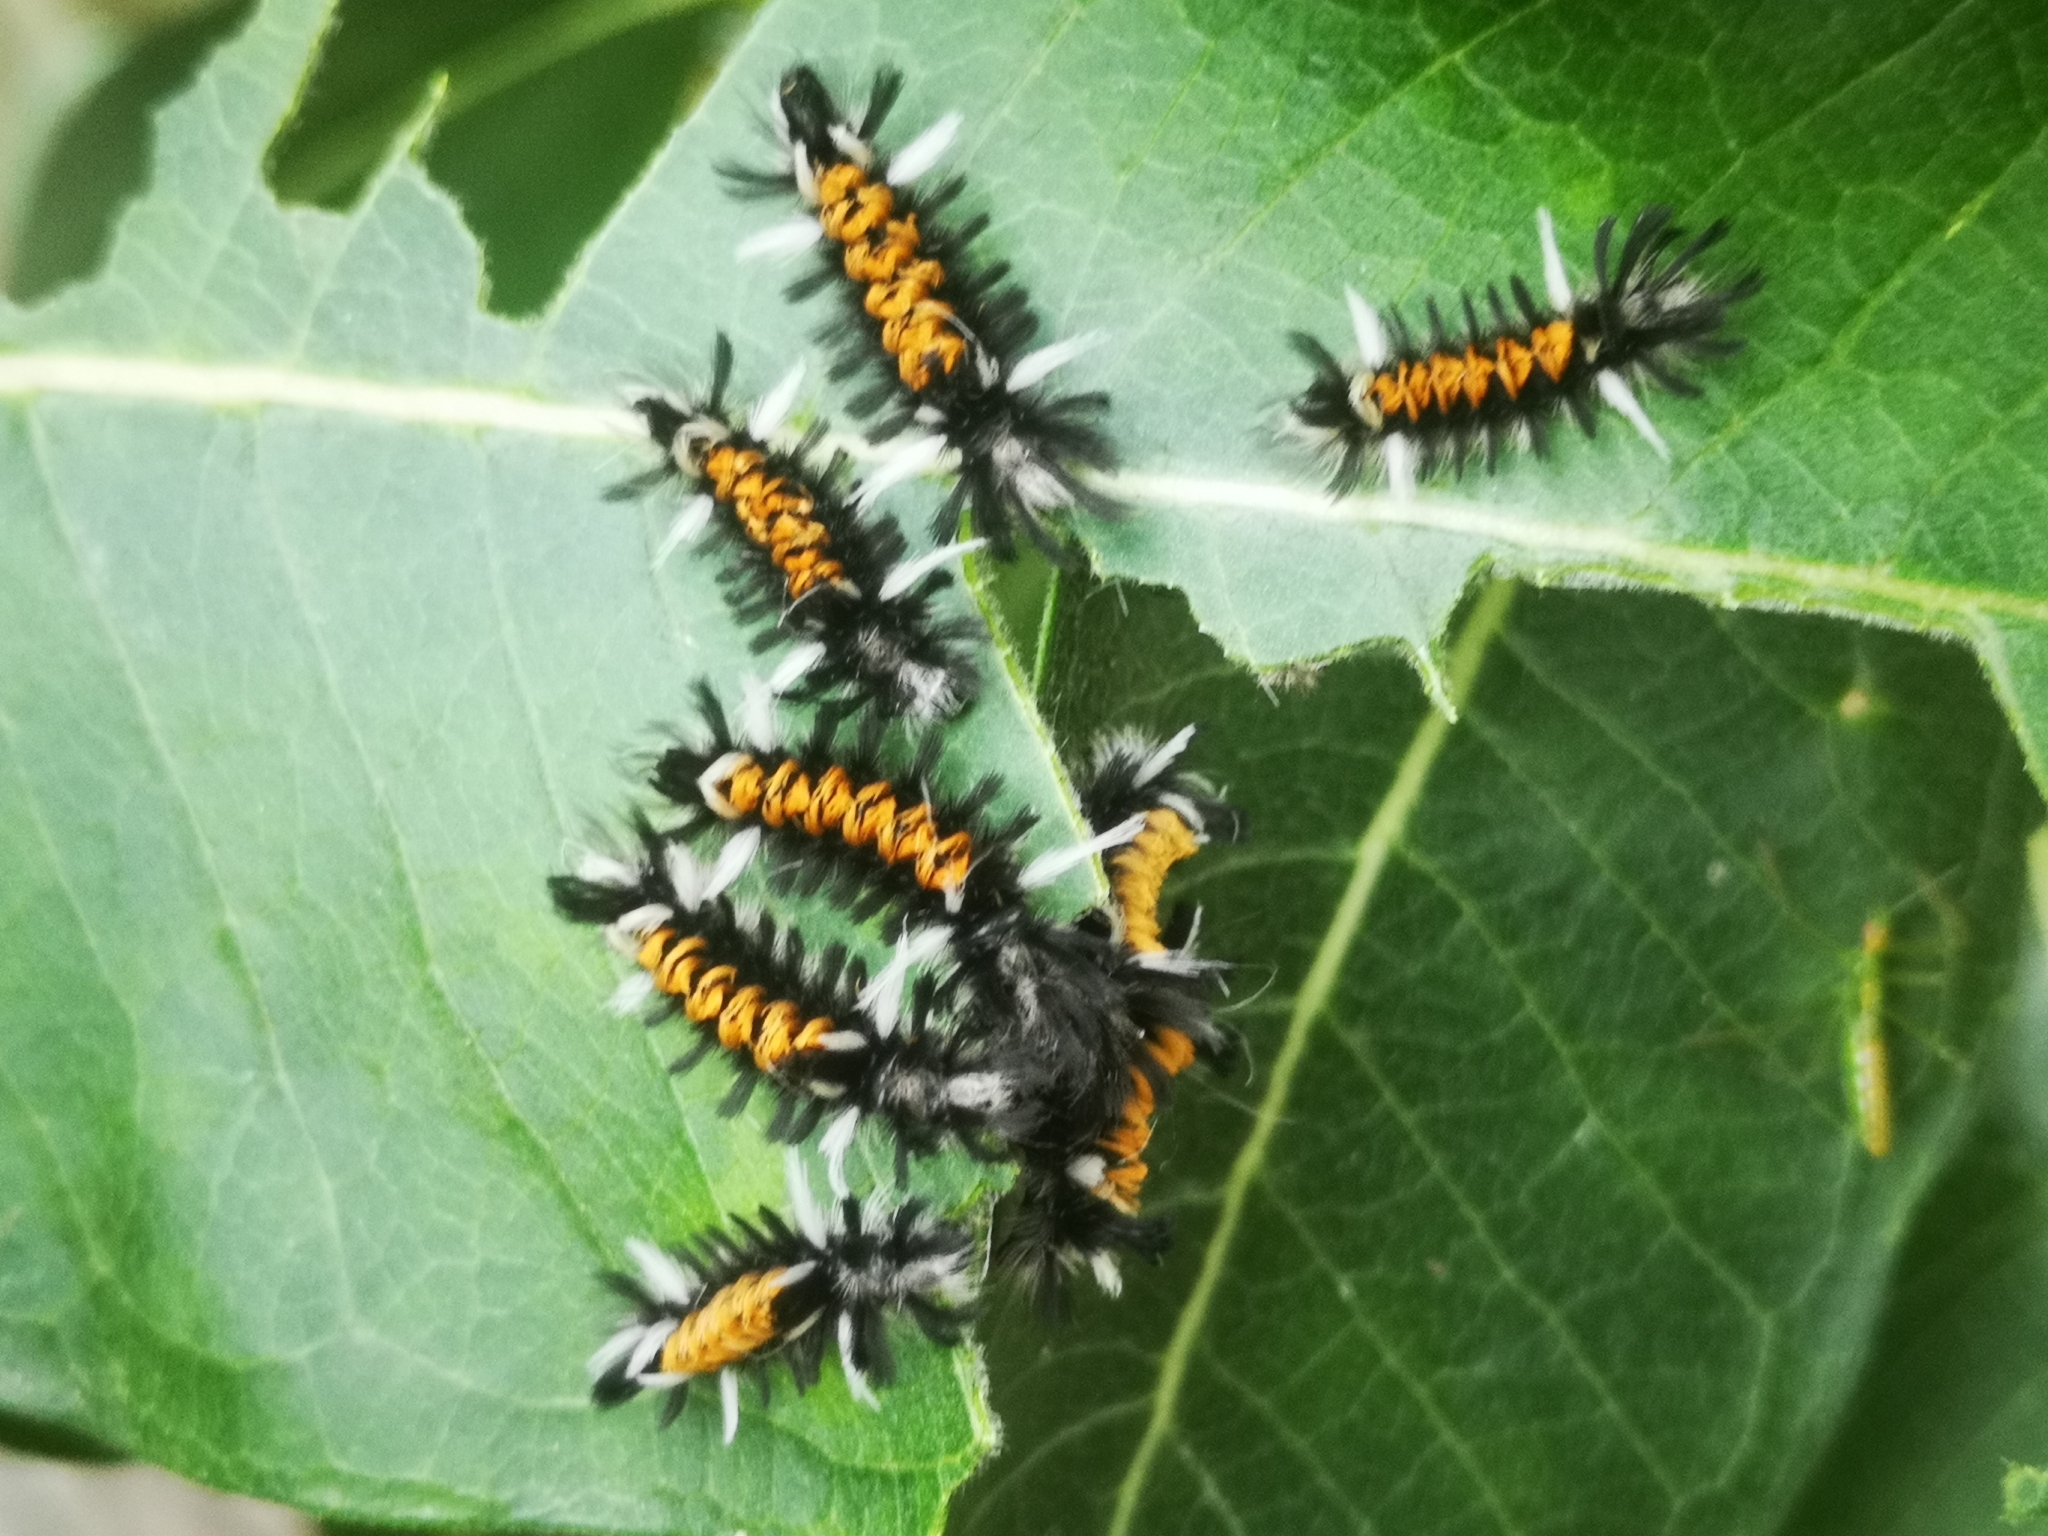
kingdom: Animalia
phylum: Arthropoda
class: Insecta
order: Lepidoptera
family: Erebidae
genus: Euchaetes
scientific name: Euchaetes egle
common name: Milkweed tussock moth
